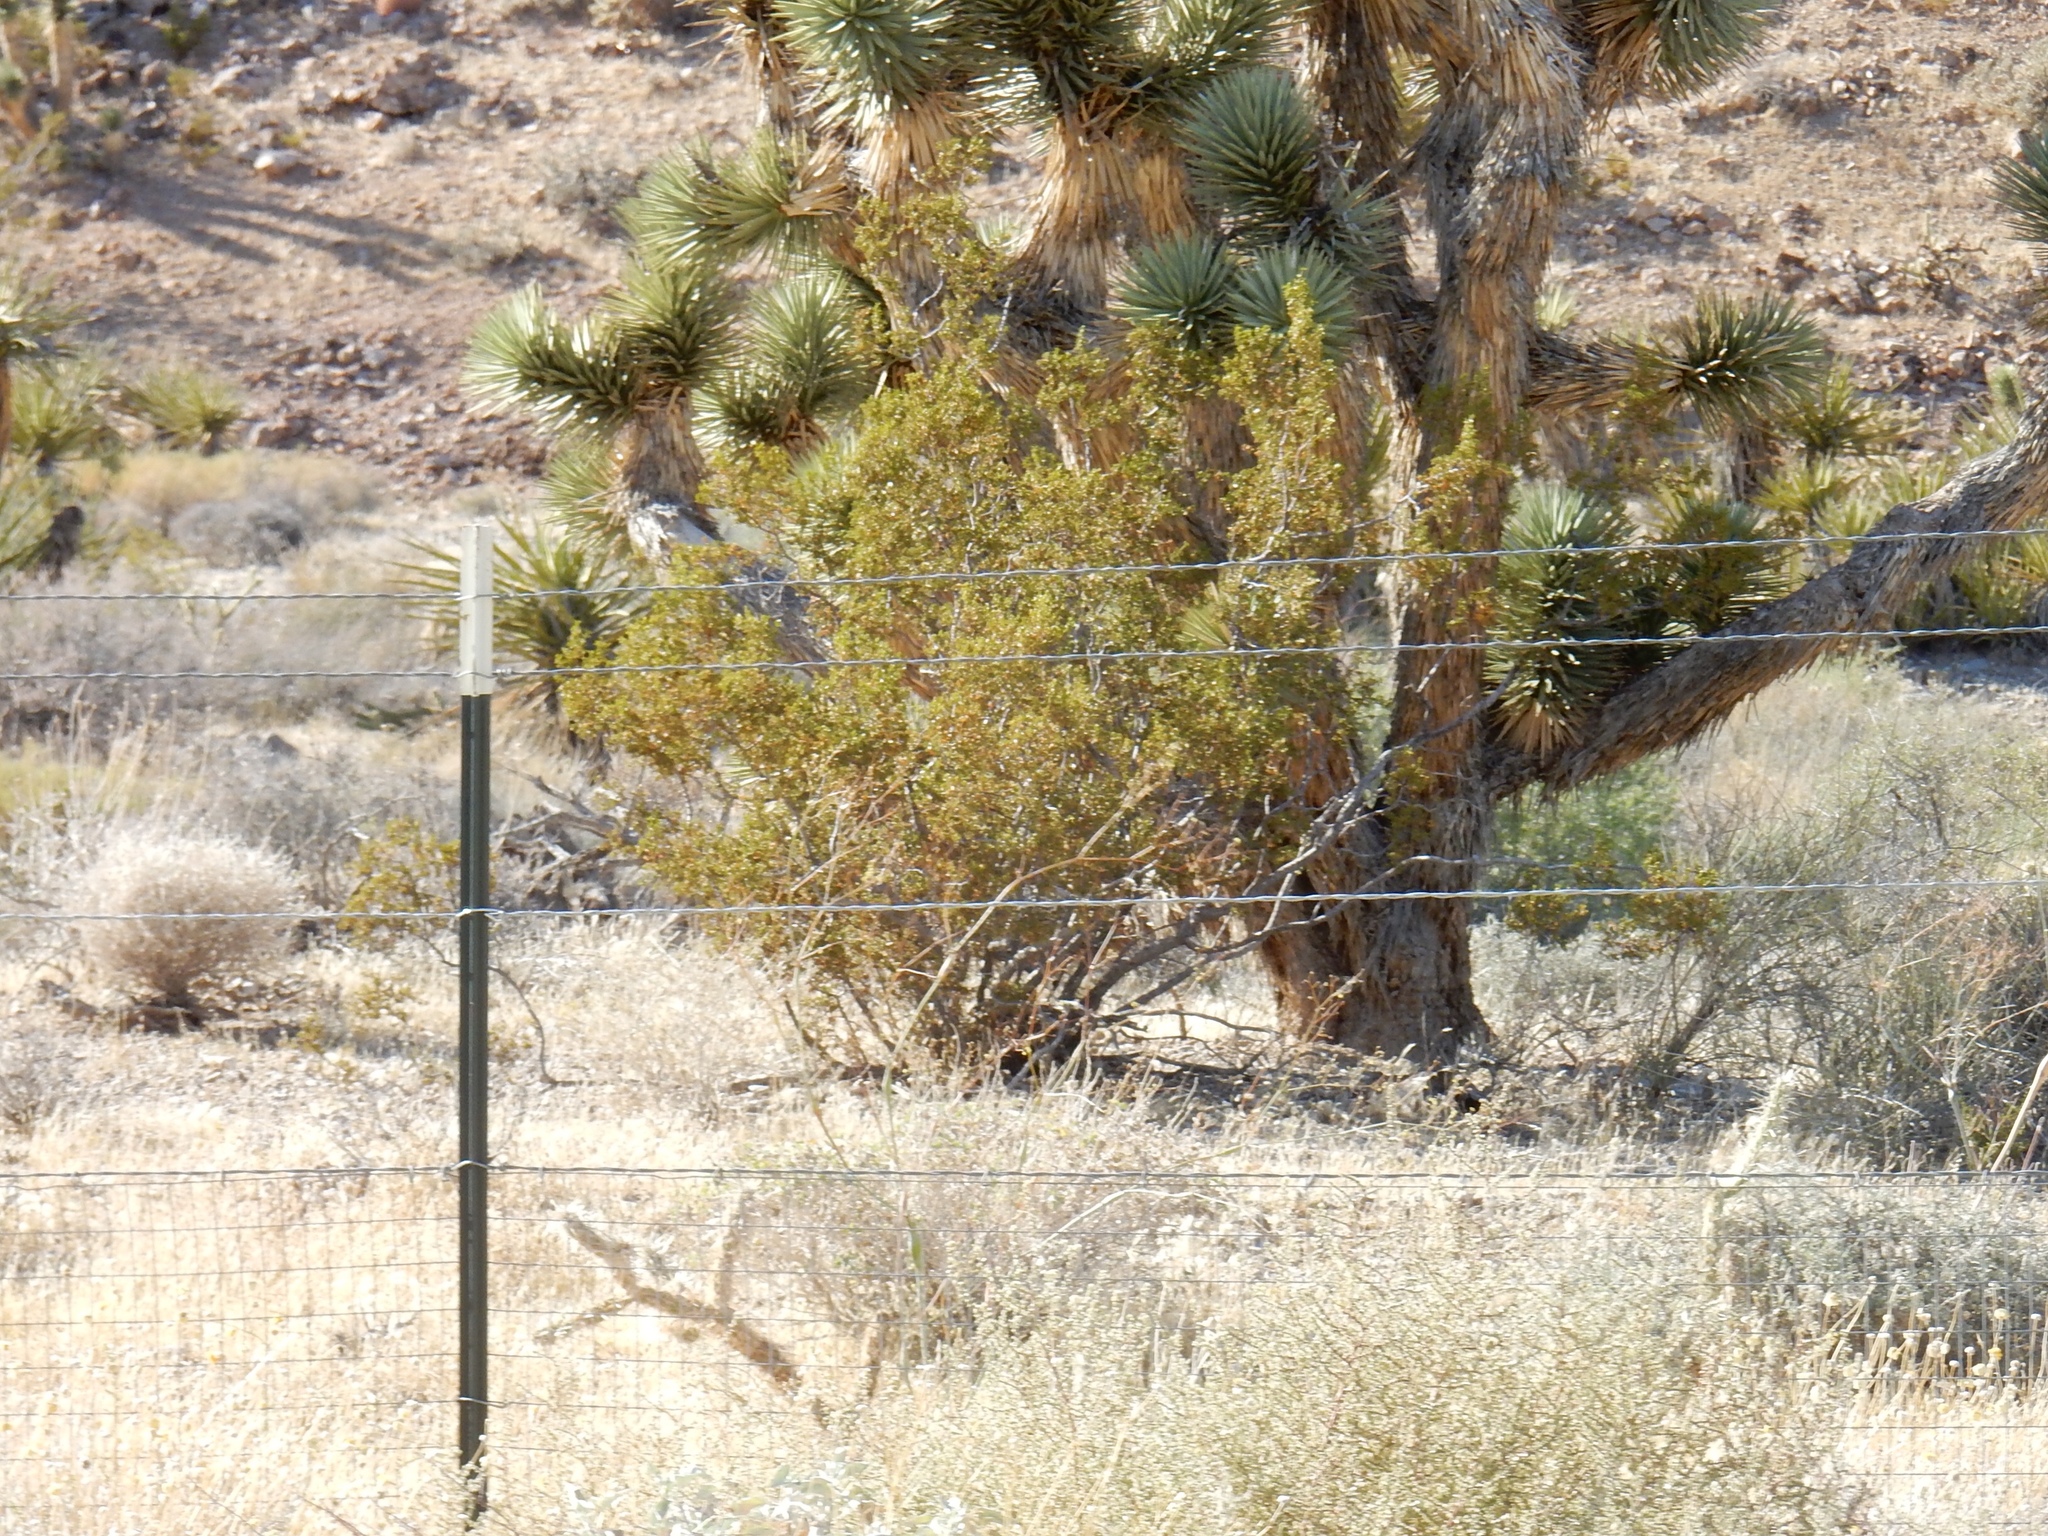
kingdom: Plantae
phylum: Tracheophyta
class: Magnoliopsida
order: Zygophyllales
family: Zygophyllaceae
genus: Larrea
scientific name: Larrea tridentata
